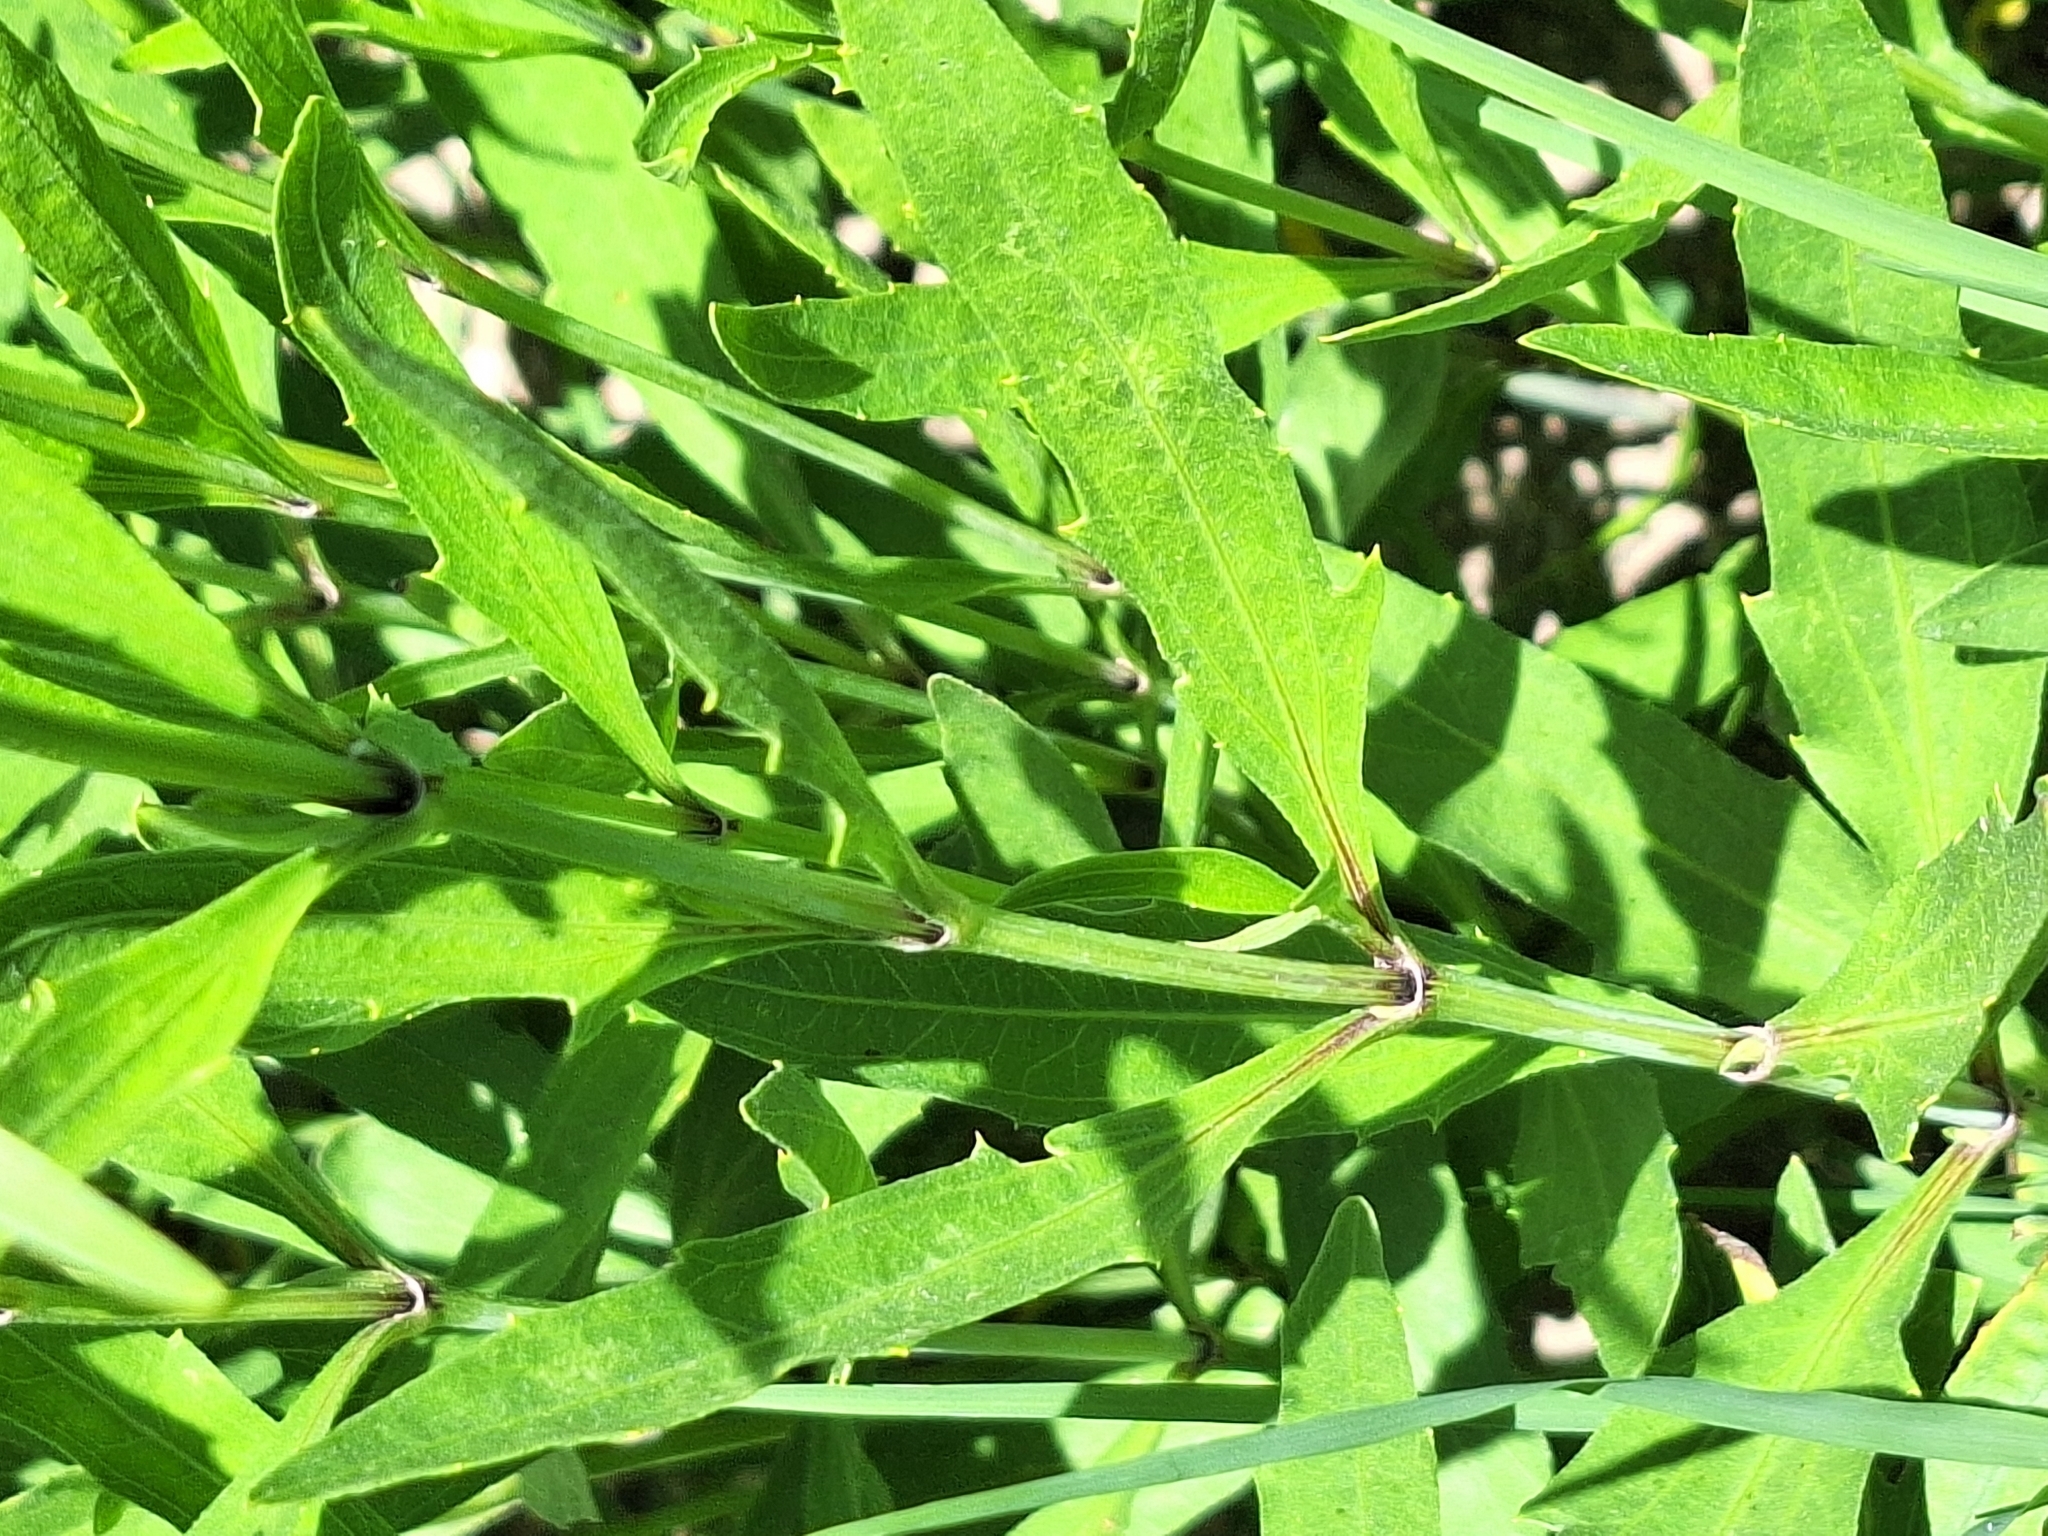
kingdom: Plantae
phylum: Tracheophyta
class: Magnoliopsida
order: Asterales
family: Asteraceae
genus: Pascalia
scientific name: Pascalia glauca
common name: Beach creeping oxeye
